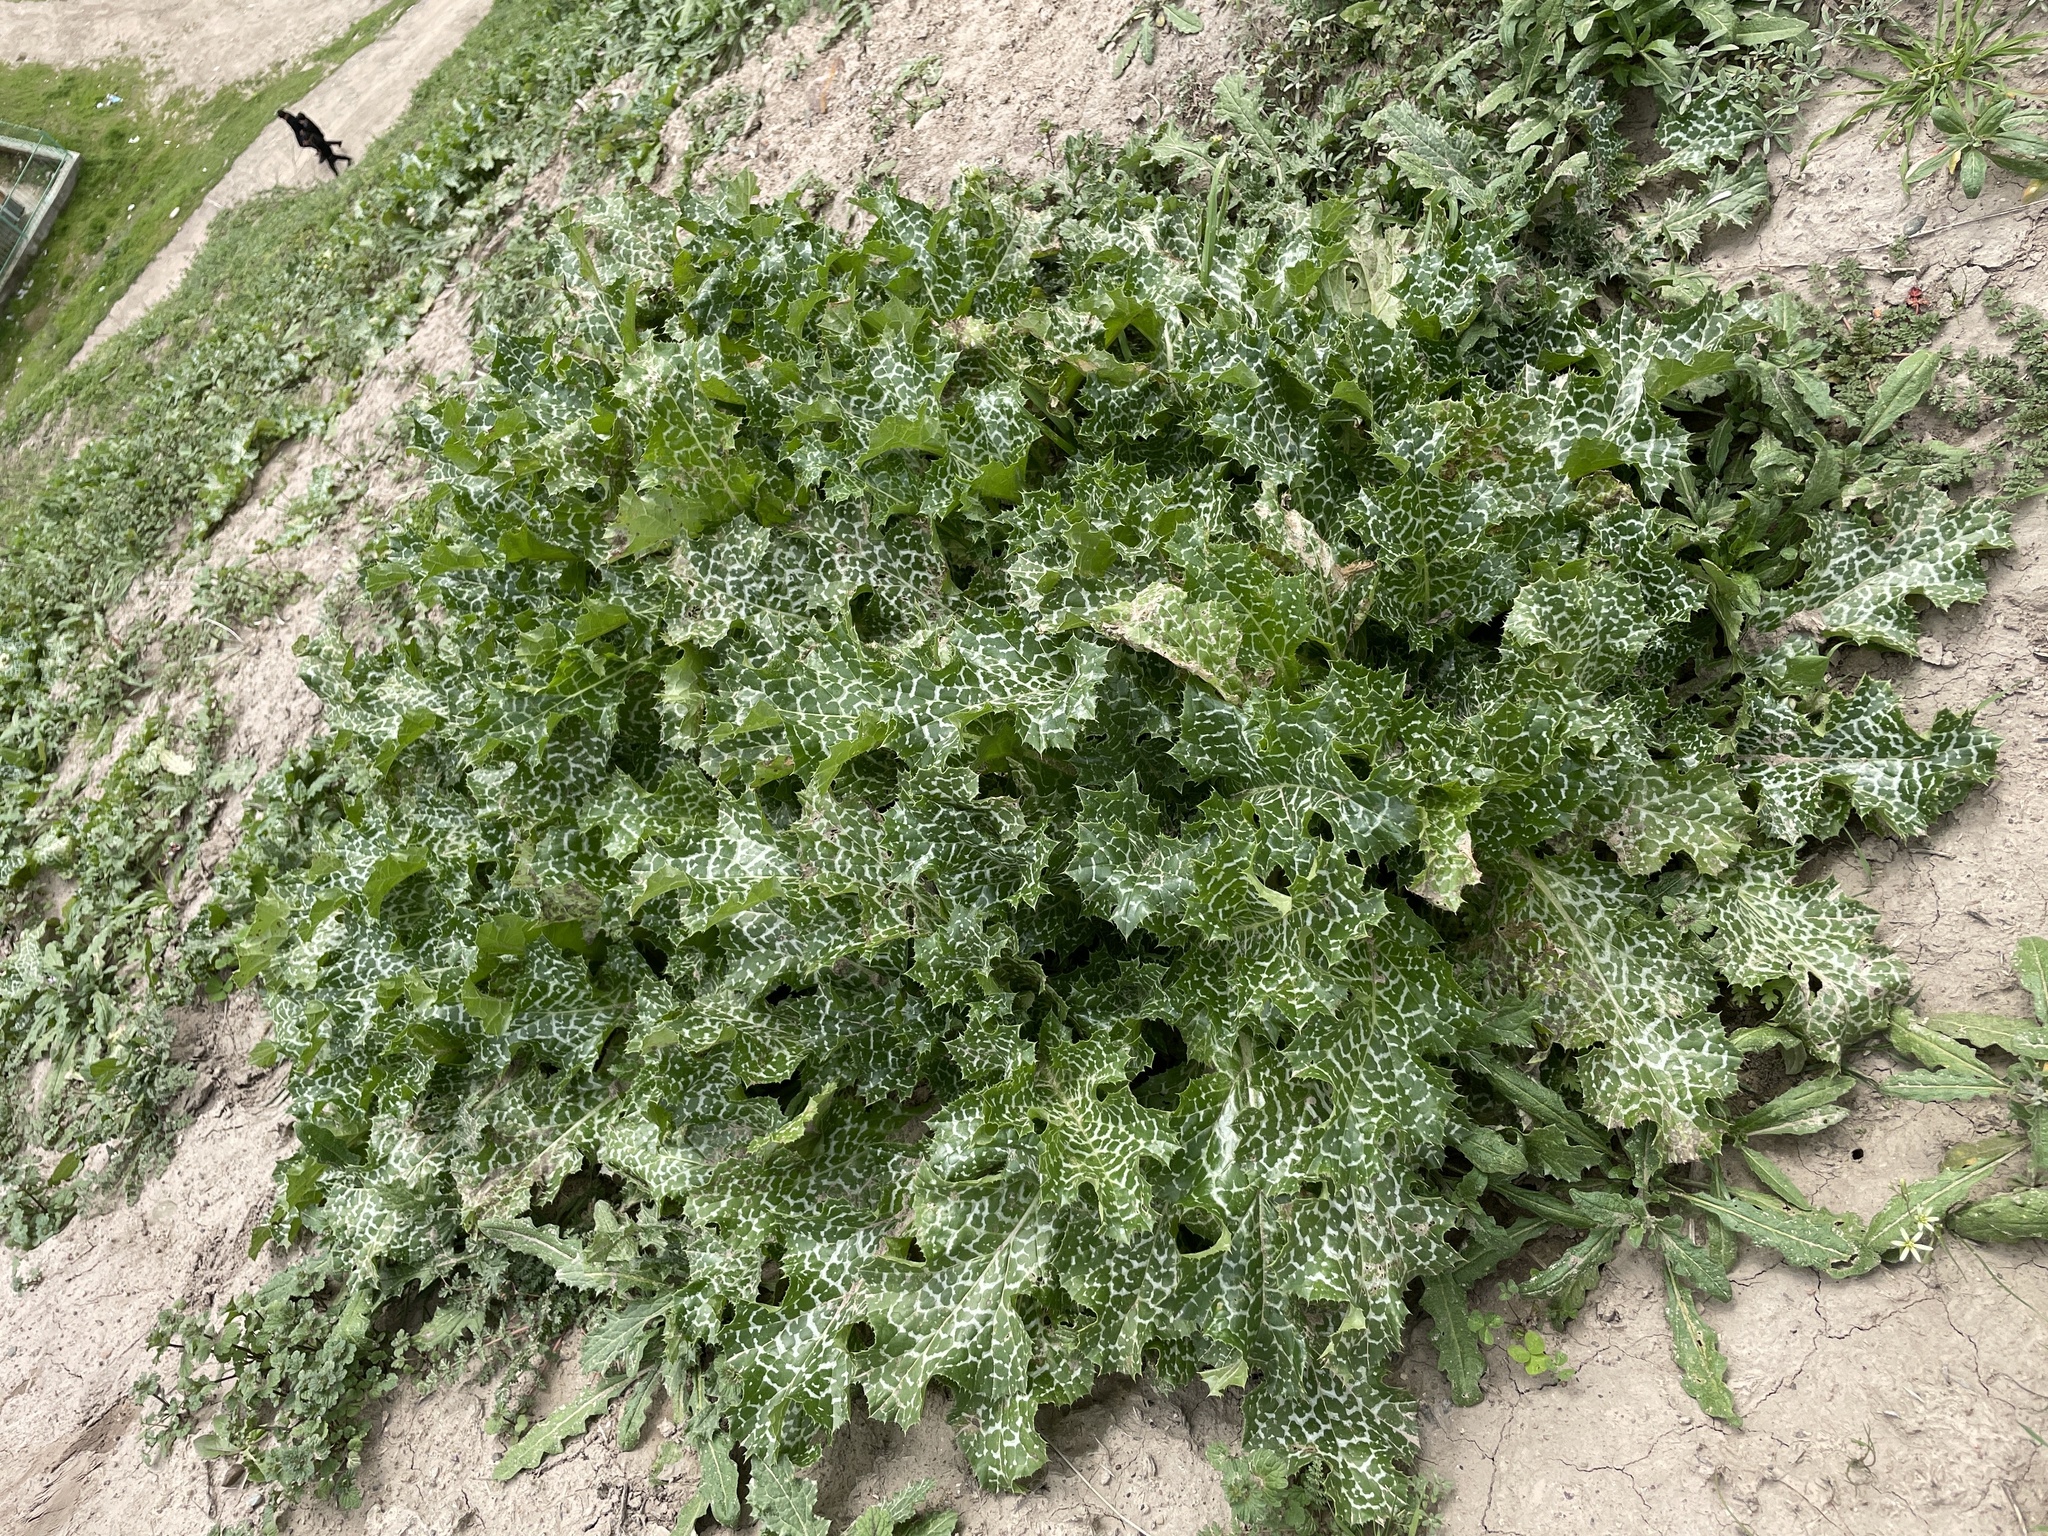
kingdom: Plantae
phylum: Tracheophyta
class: Magnoliopsida
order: Asterales
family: Asteraceae
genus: Silybum
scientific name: Silybum marianum
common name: Milk thistle
